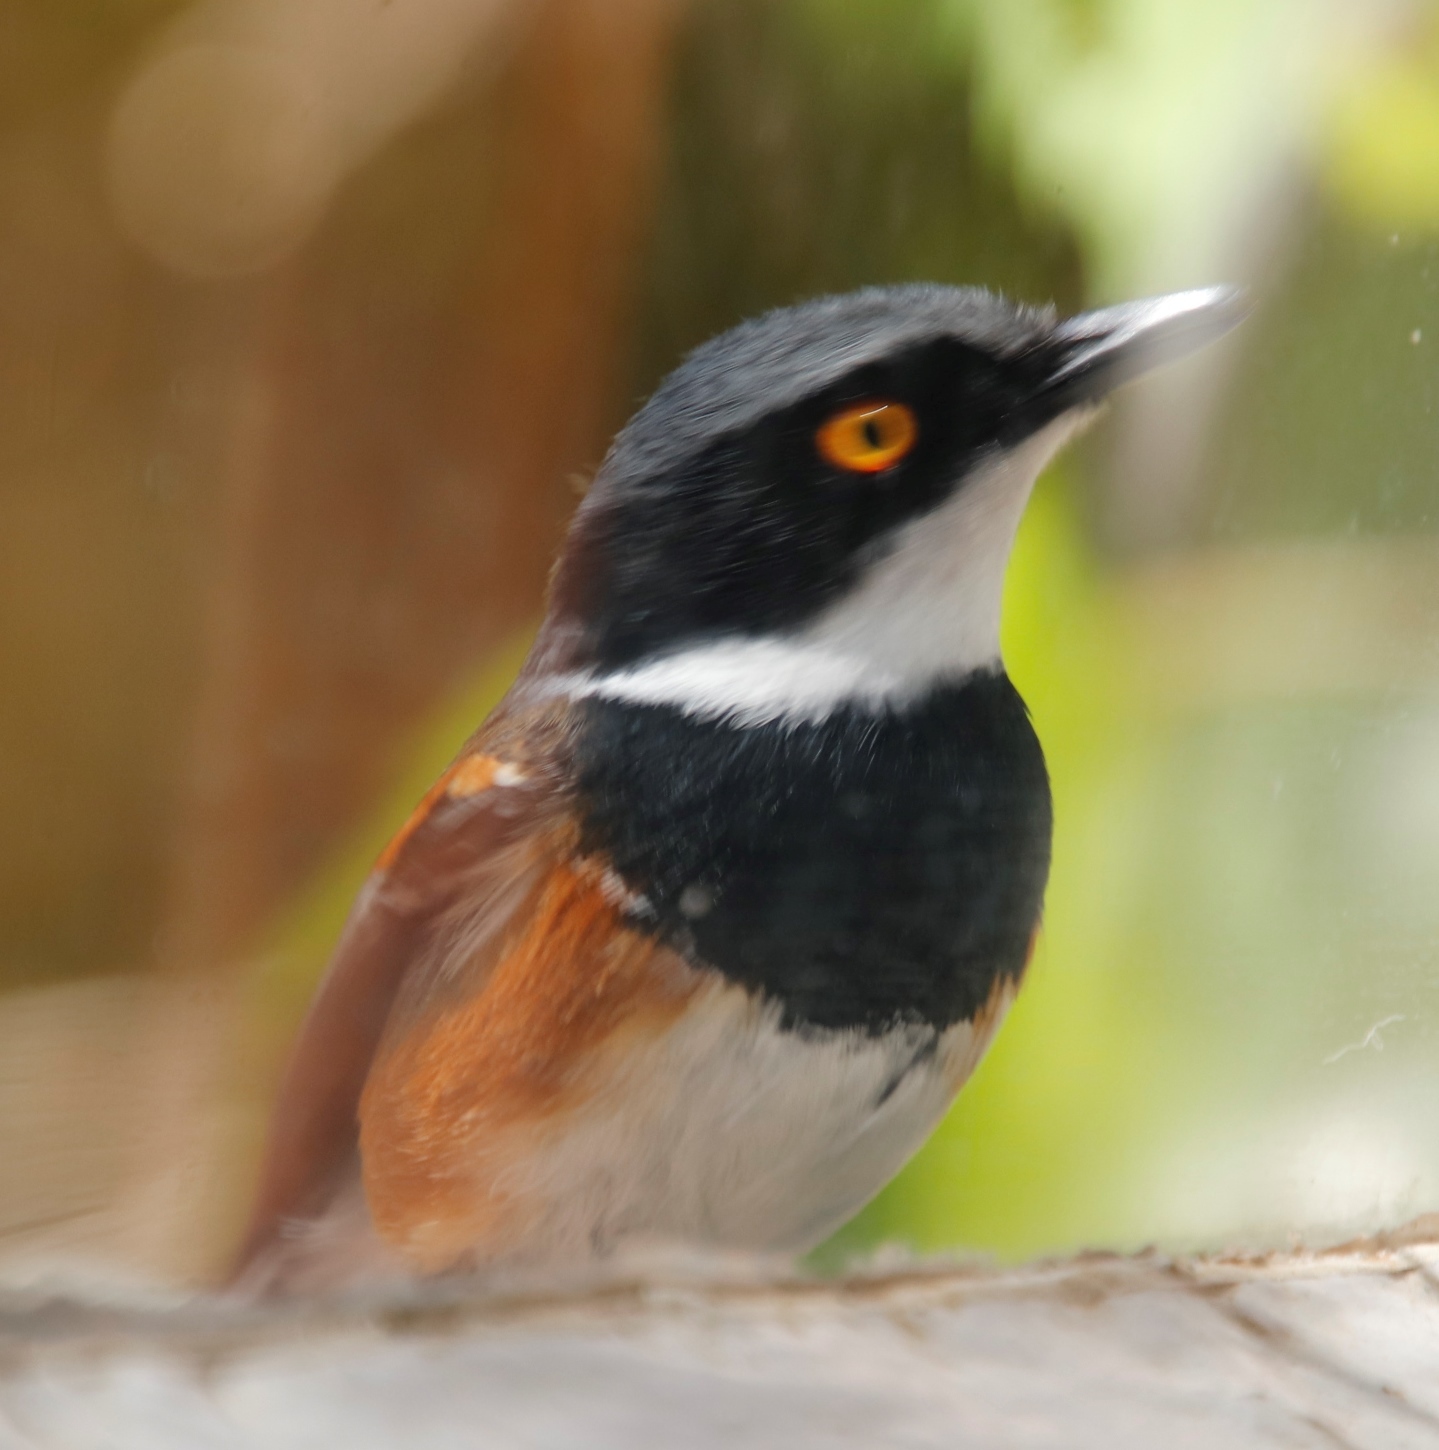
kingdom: Animalia
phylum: Chordata
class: Aves
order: Passeriformes
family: Platysteiridae
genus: Batis
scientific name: Batis capensis
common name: Cape batis
